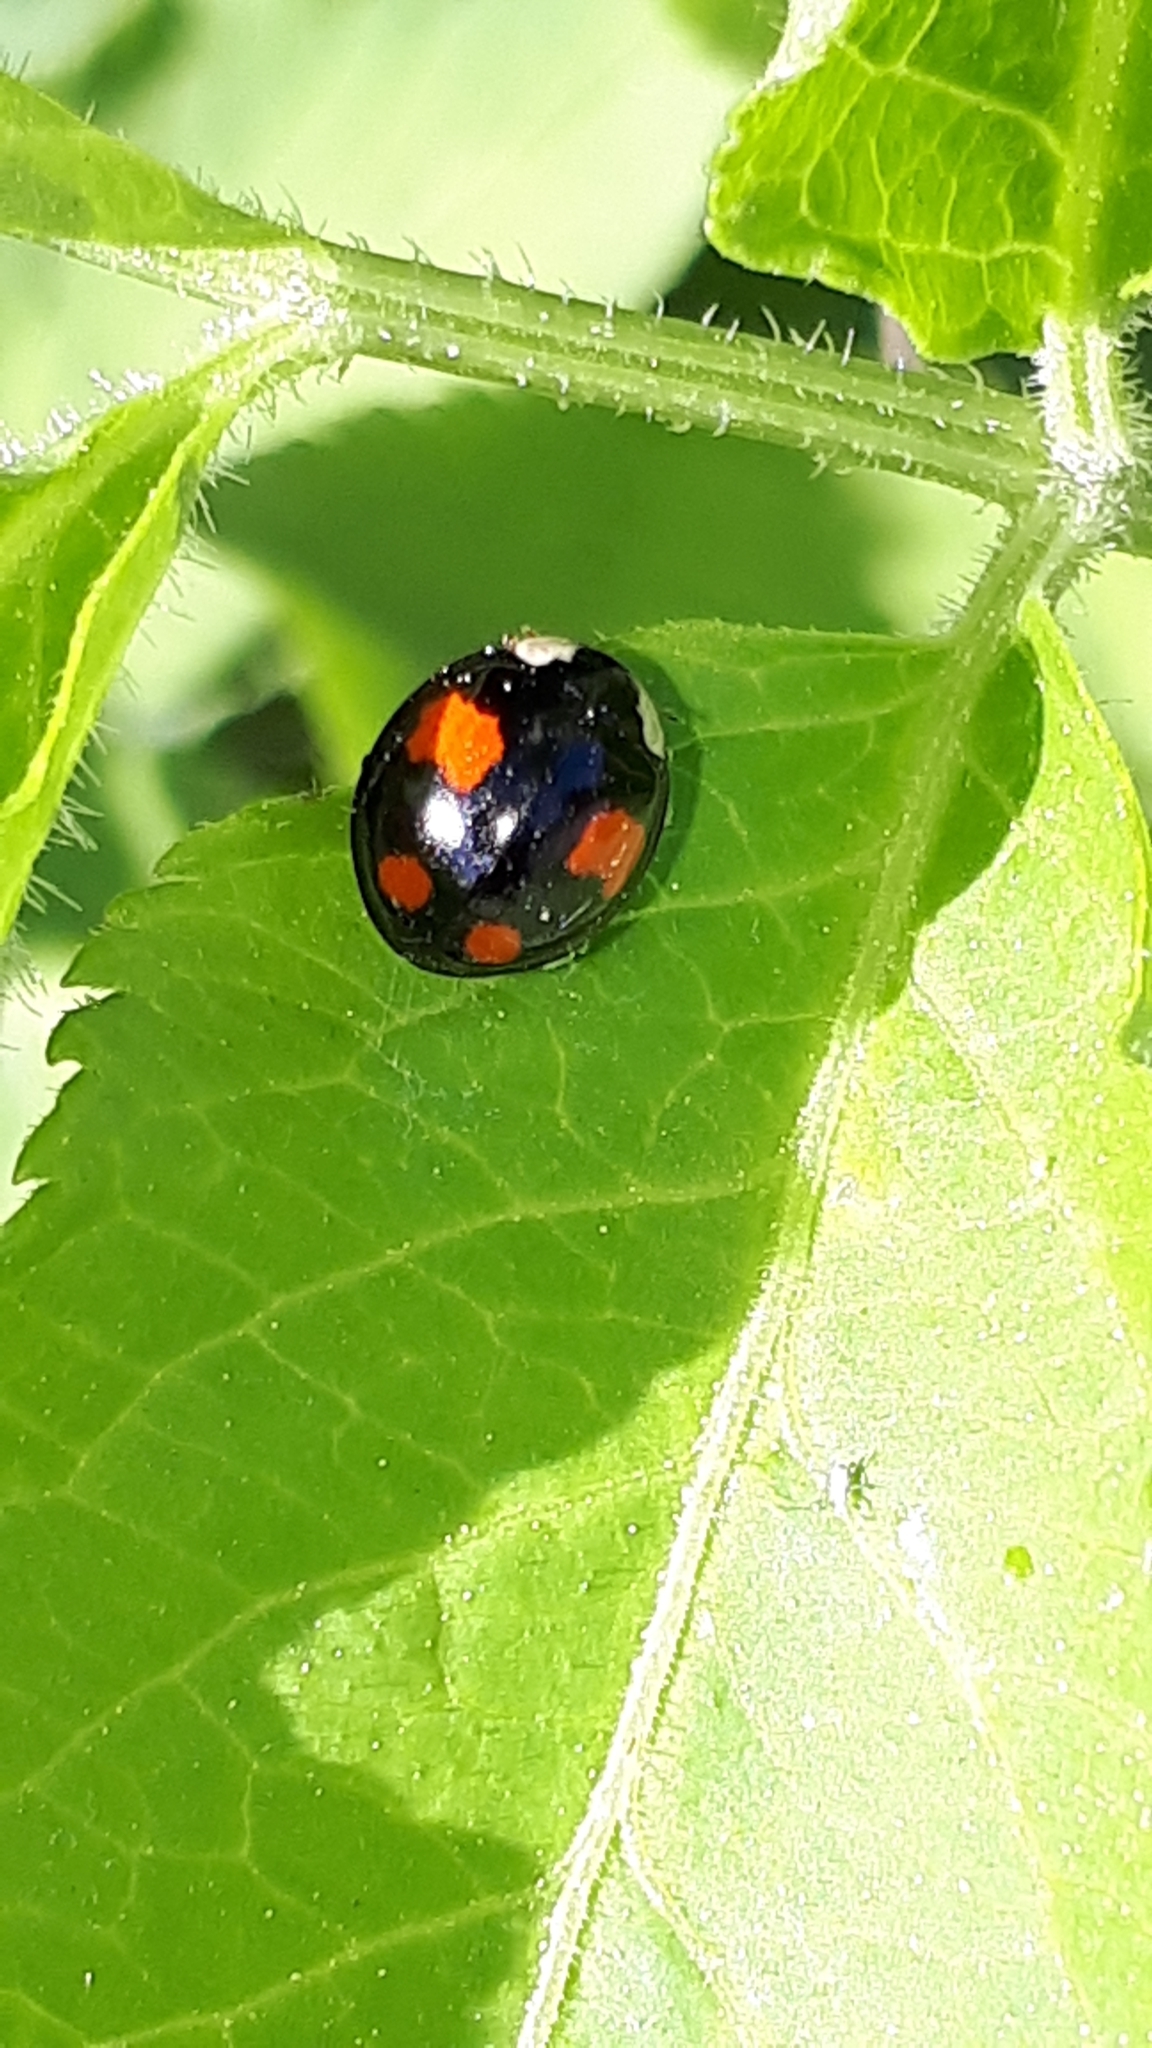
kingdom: Animalia
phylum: Arthropoda
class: Insecta
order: Coleoptera
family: Coccinellidae
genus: Harmonia
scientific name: Harmonia axyridis
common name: Harlequin ladybird
